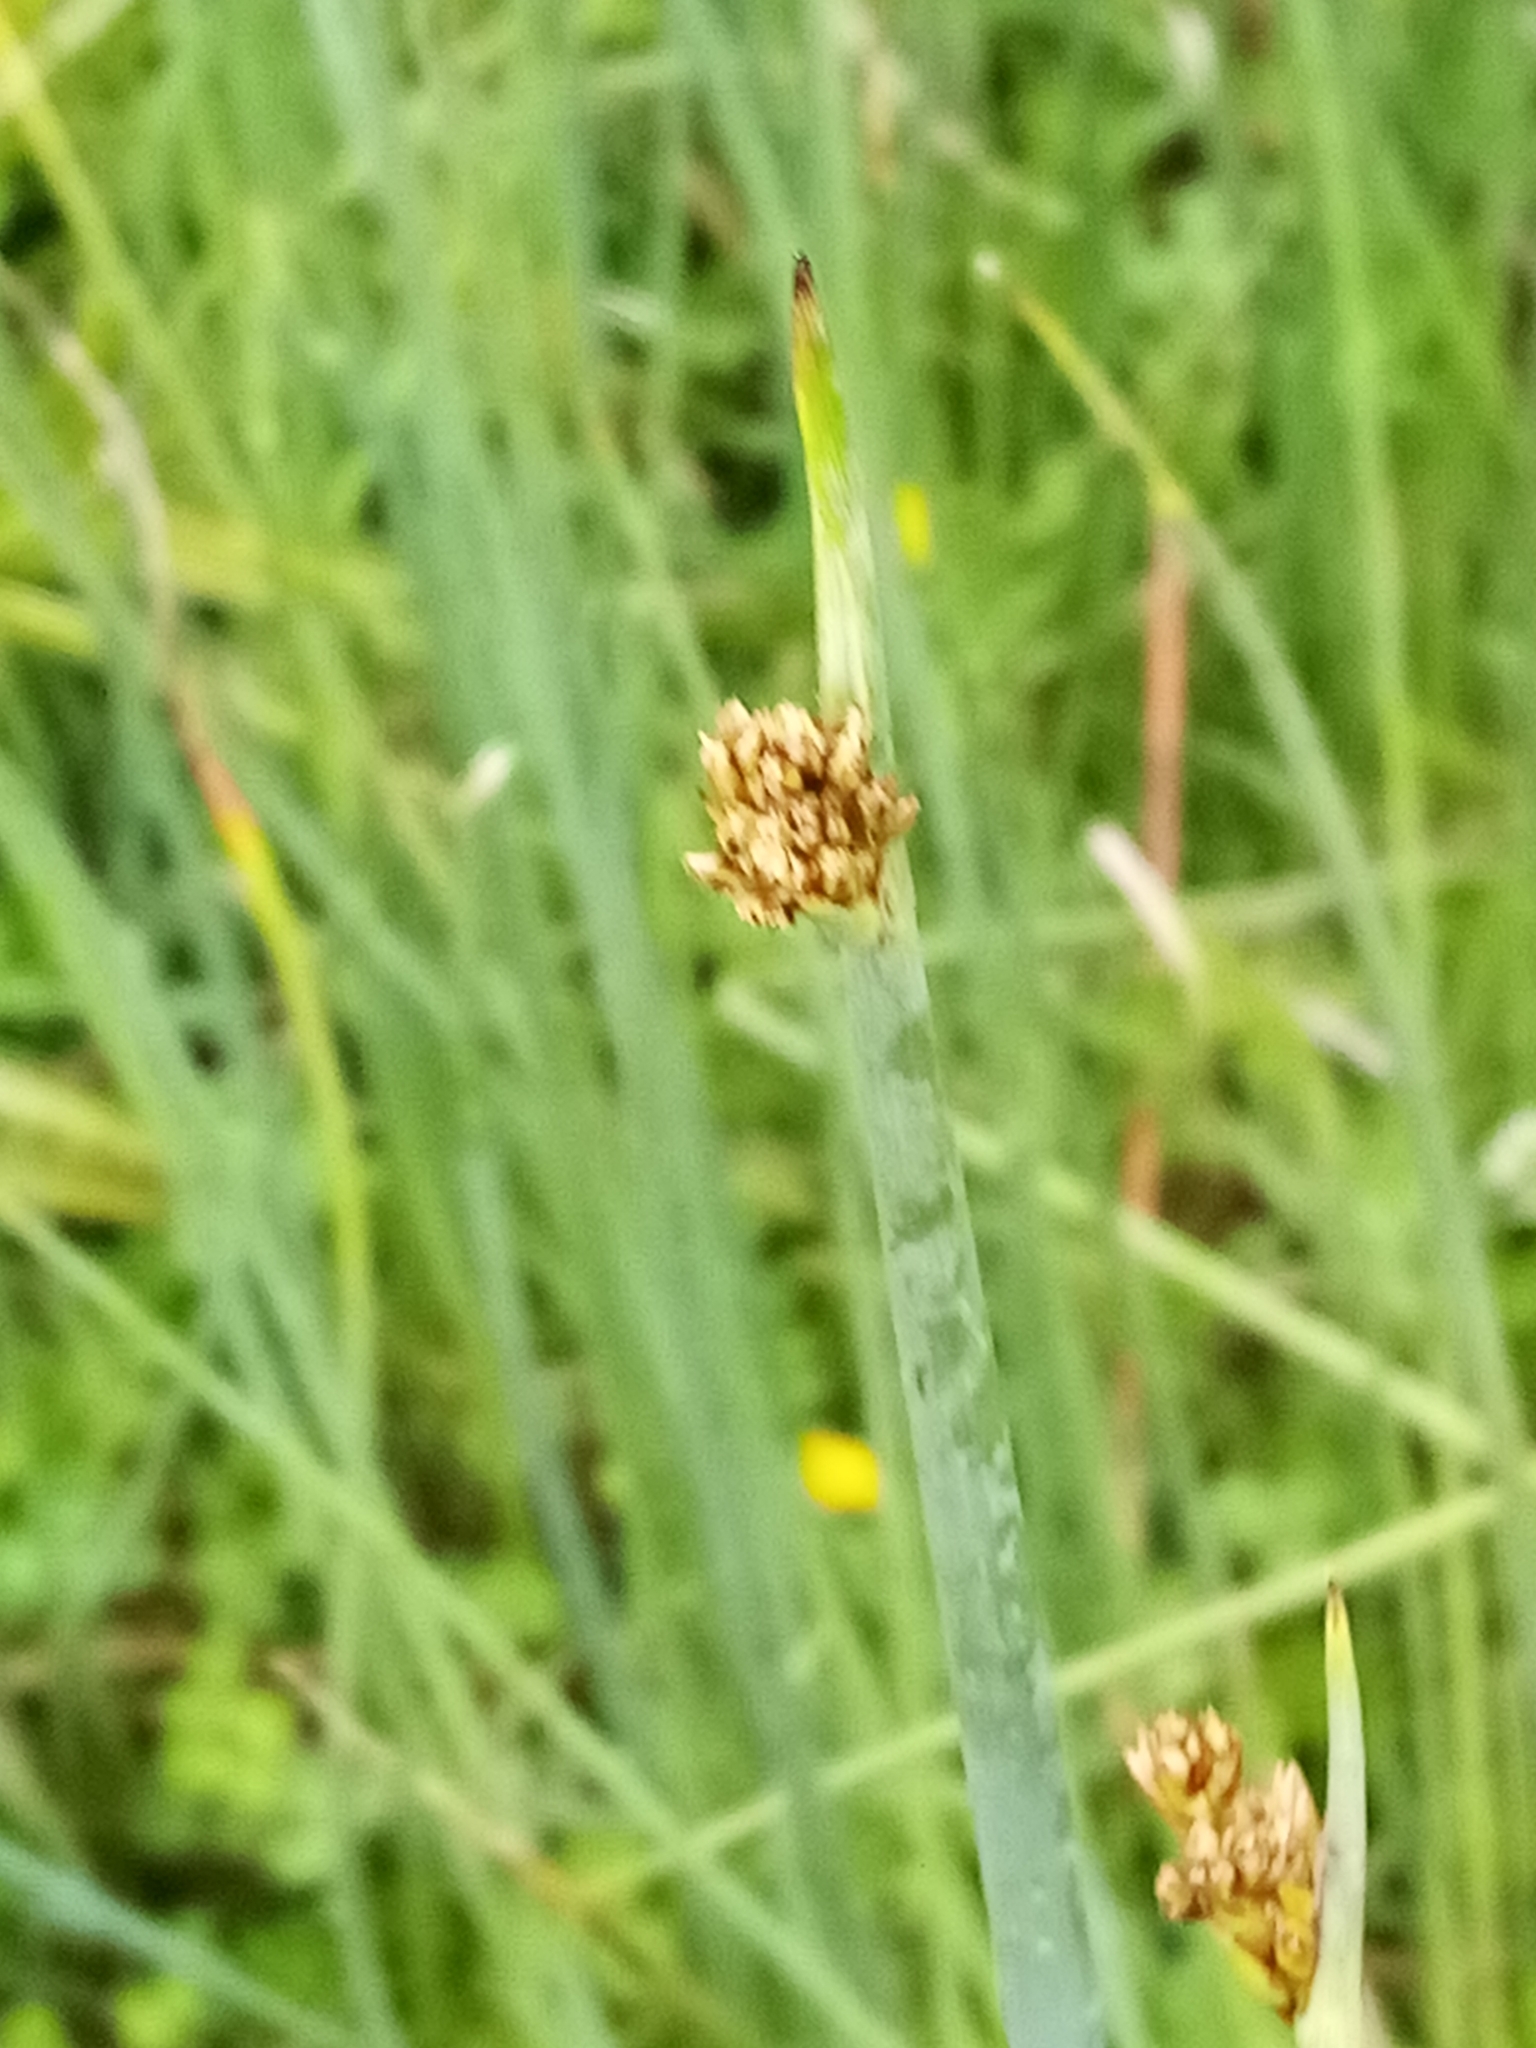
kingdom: Plantae
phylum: Tracheophyta
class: Liliopsida
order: Poales
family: Cyperaceae
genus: Schoenoplectus
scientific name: Schoenoplectus tabernaemontani
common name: Grey club-rush
